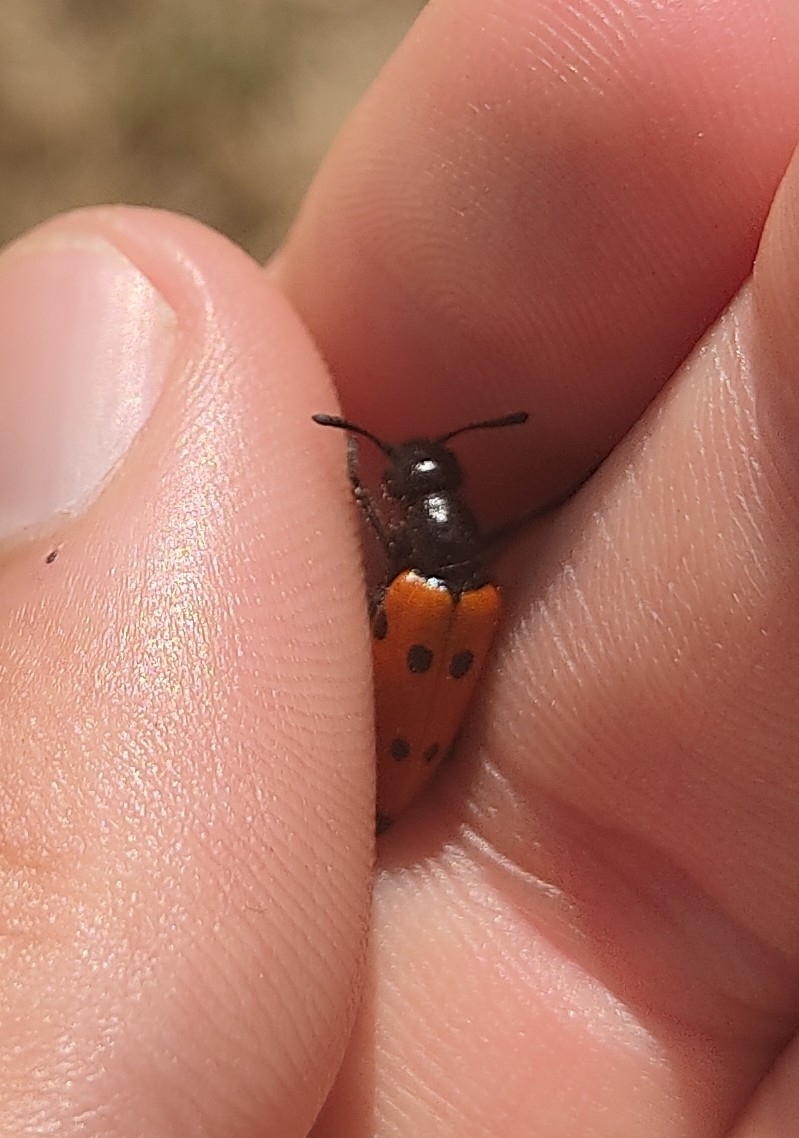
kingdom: Animalia
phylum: Arthropoda
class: Insecta
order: Coleoptera
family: Meloidae
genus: Mylabris
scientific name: Mylabris quadripunctata
